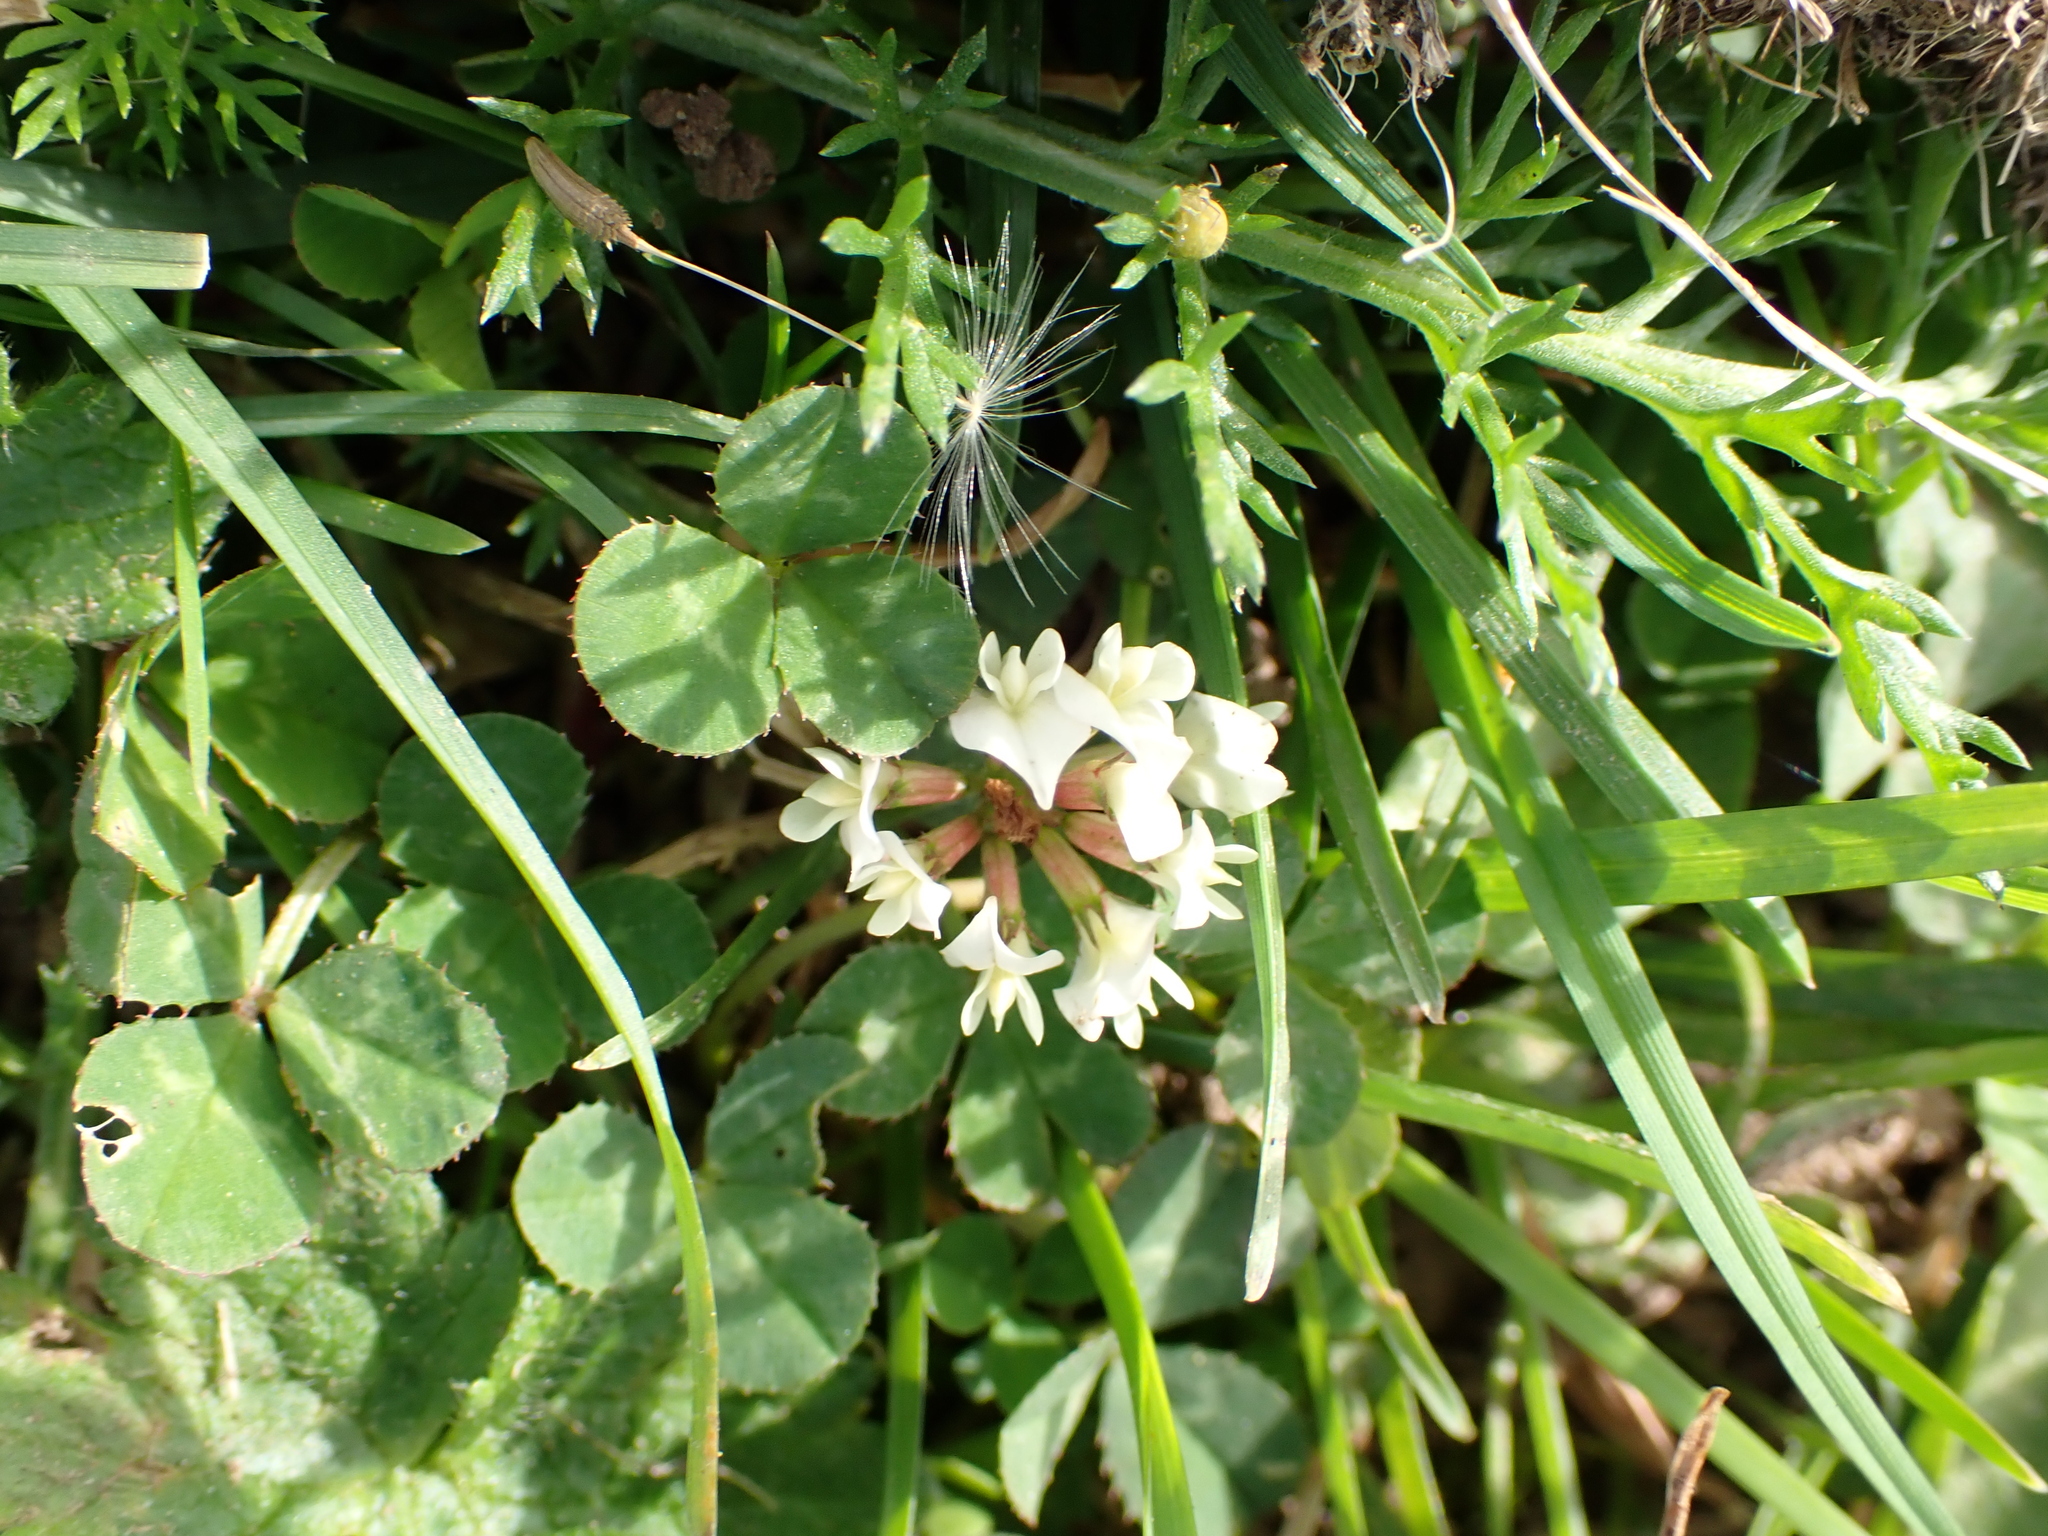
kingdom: Plantae
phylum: Tracheophyta
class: Magnoliopsida
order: Fabales
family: Fabaceae
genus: Trifolium
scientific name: Trifolium repens
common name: White clover
